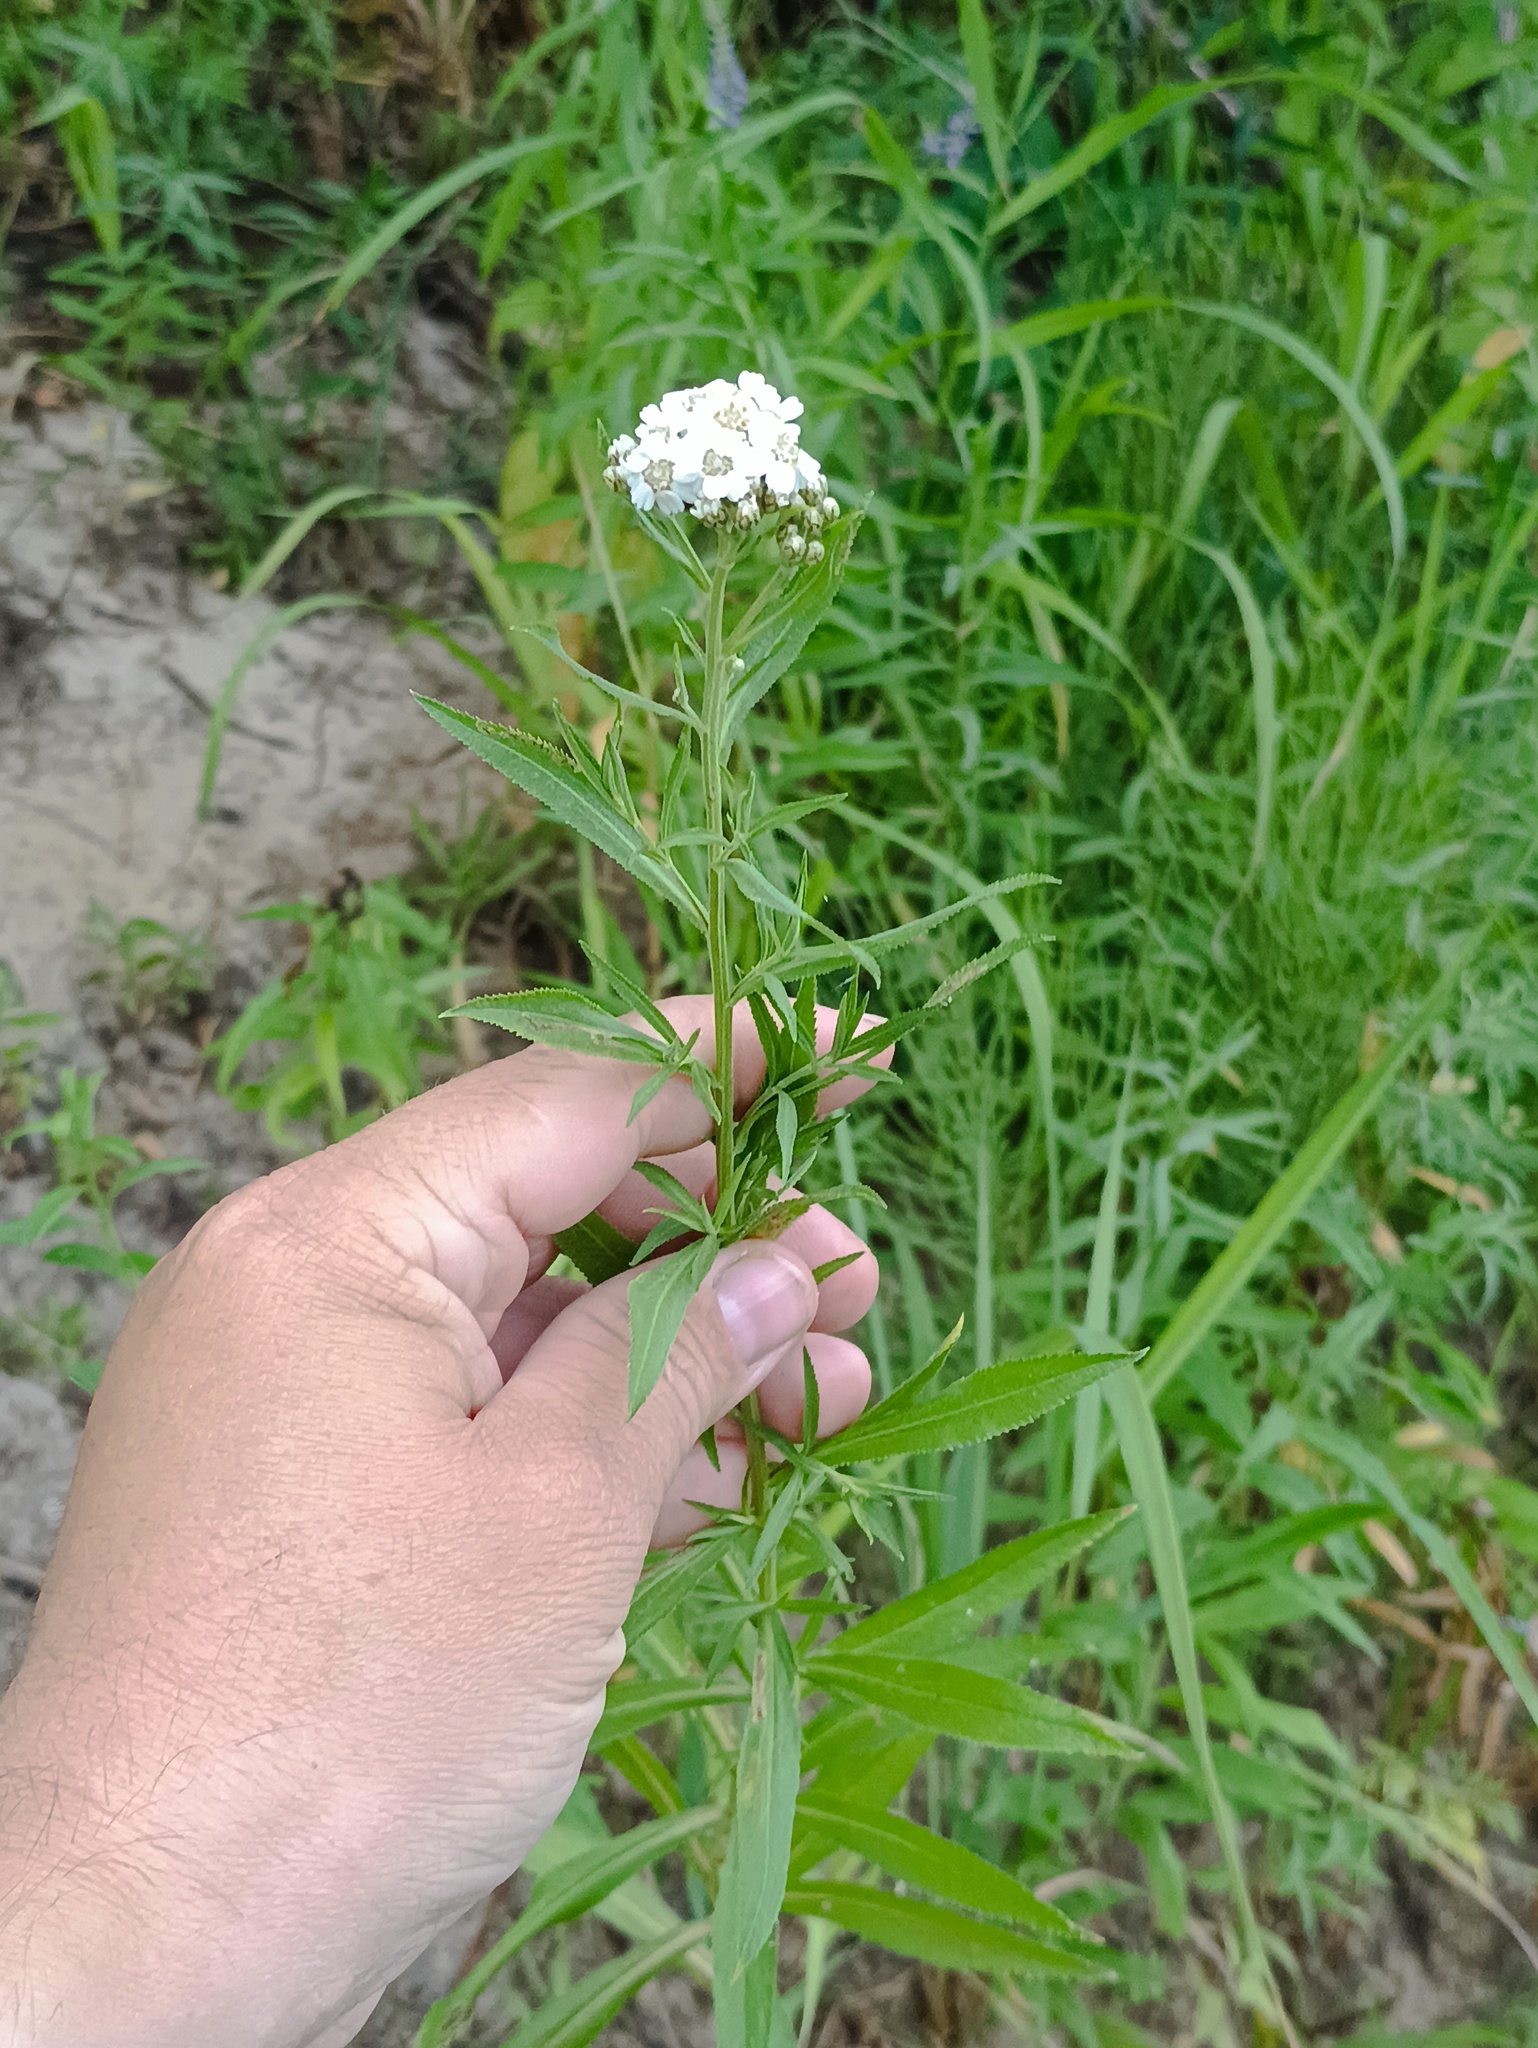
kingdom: Plantae
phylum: Tracheophyta
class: Magnoliopsida
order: Asterales
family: Asteraceae
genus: Achillea
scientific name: Achillea salicifolia
